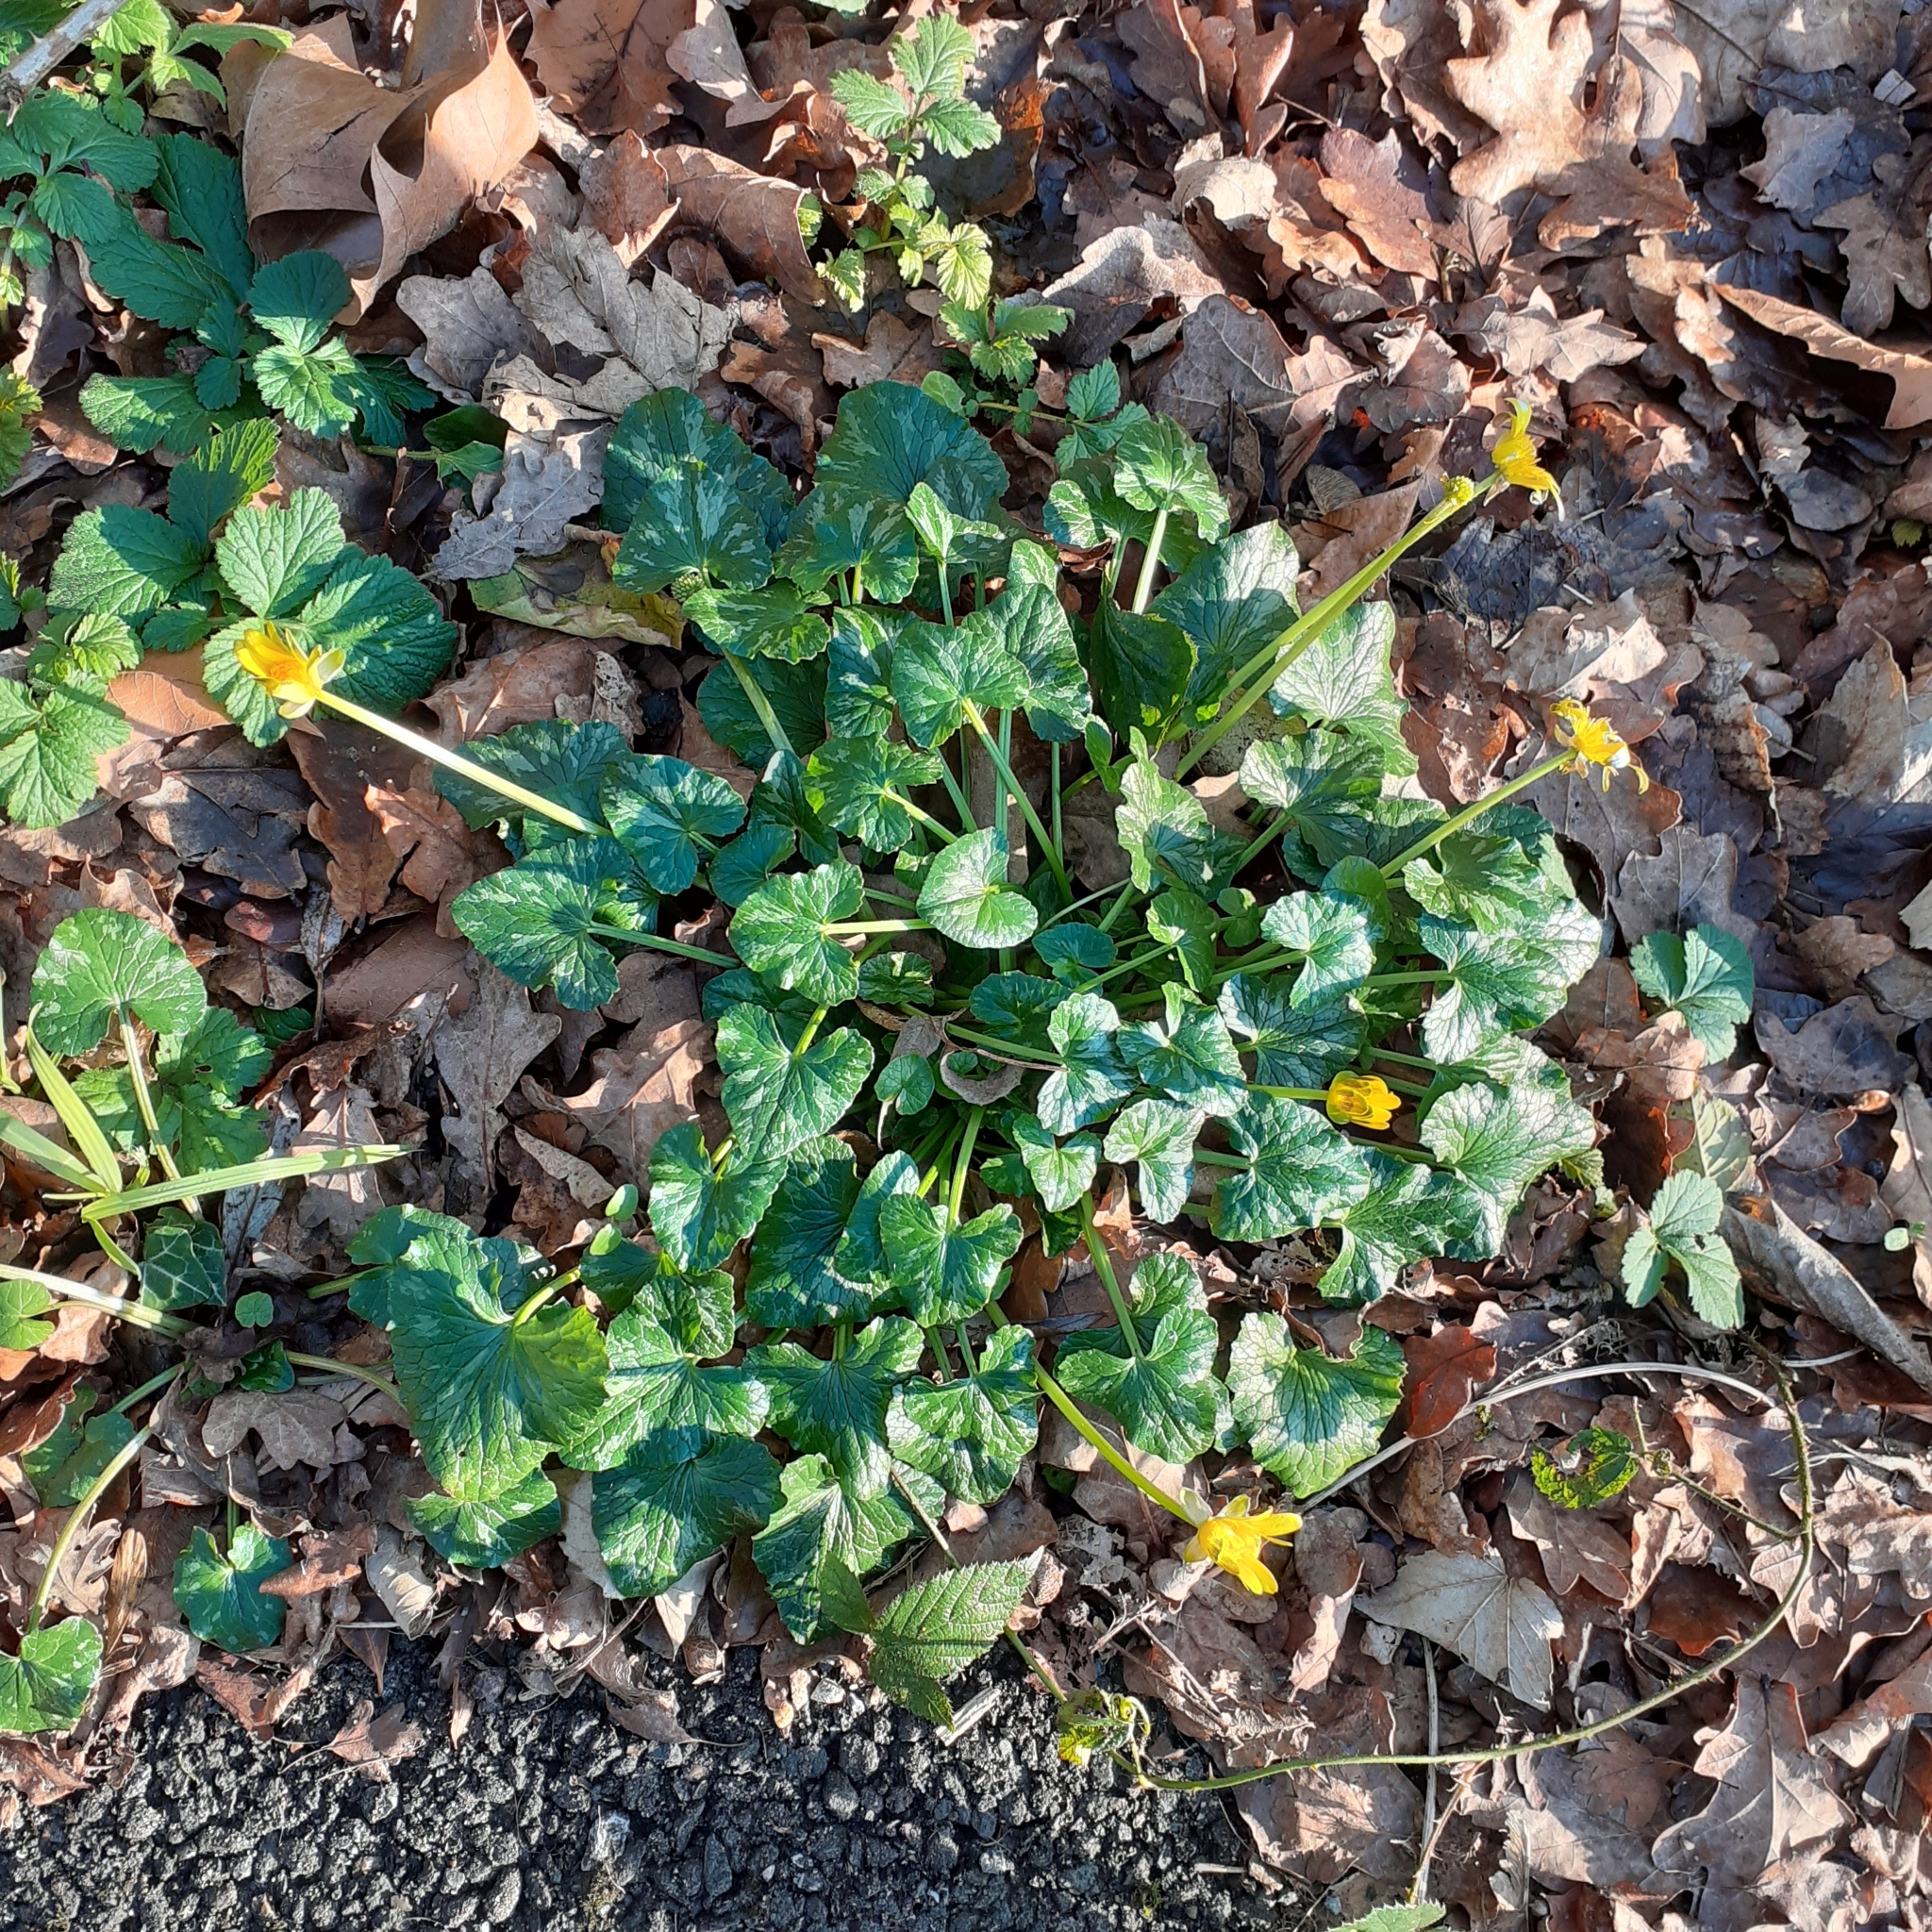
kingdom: Plantae
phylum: Tracheophyta
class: Magnoliopsida
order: Ranunculales
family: Ranunculaceae
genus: Ficaria
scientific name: Ficaria verna
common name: Lesser celandine
